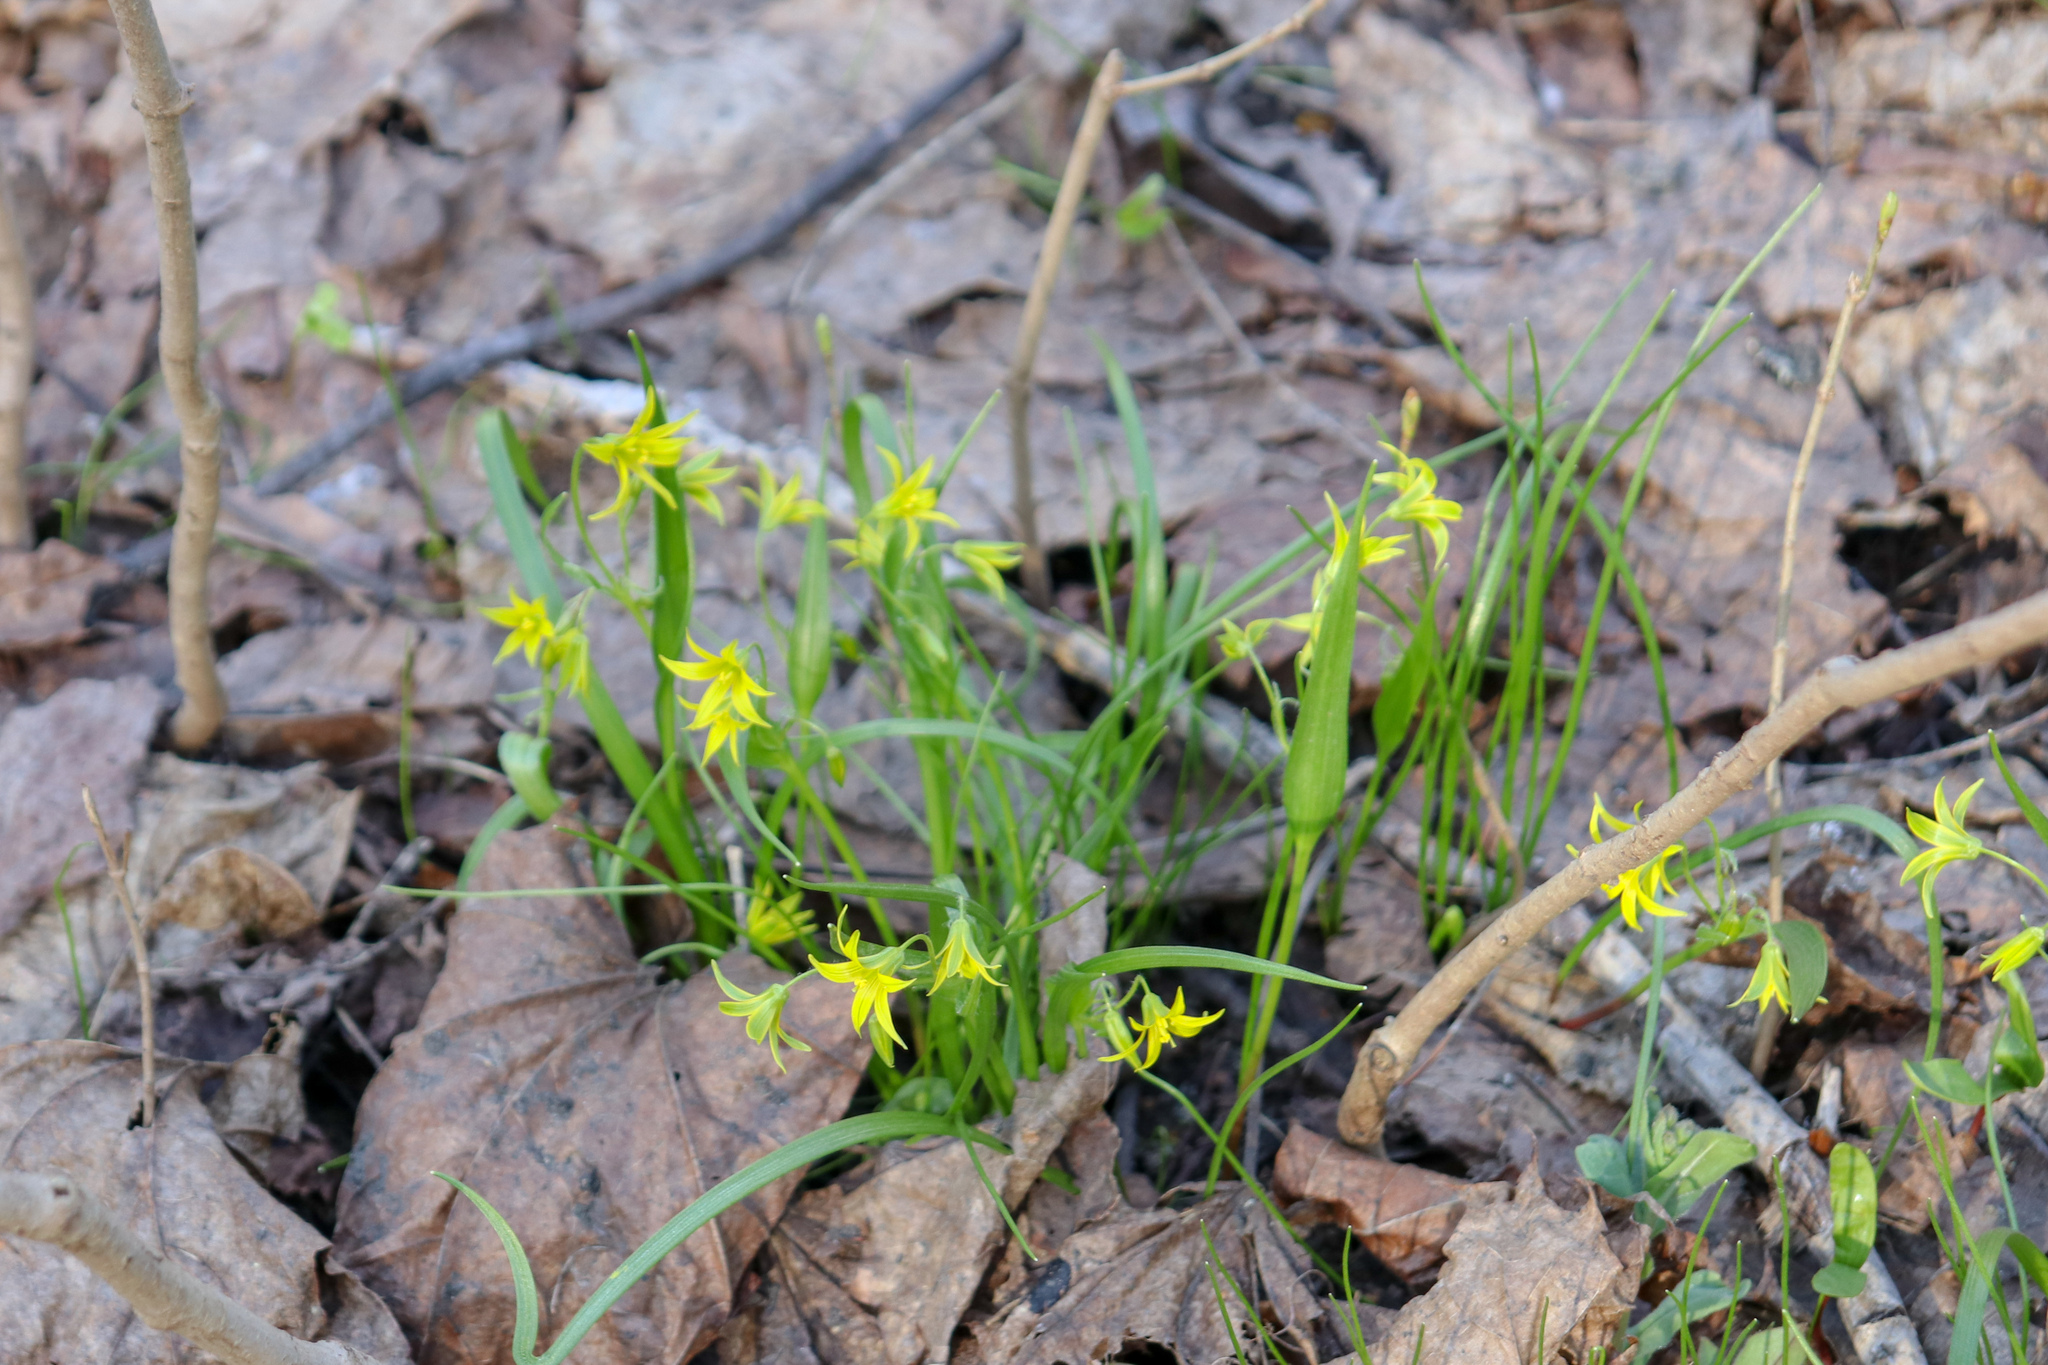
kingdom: Plantae
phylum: Tracheophyta
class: Liliopsida
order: Liliales
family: Liliaceae
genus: Gagea
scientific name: Gagea minima
